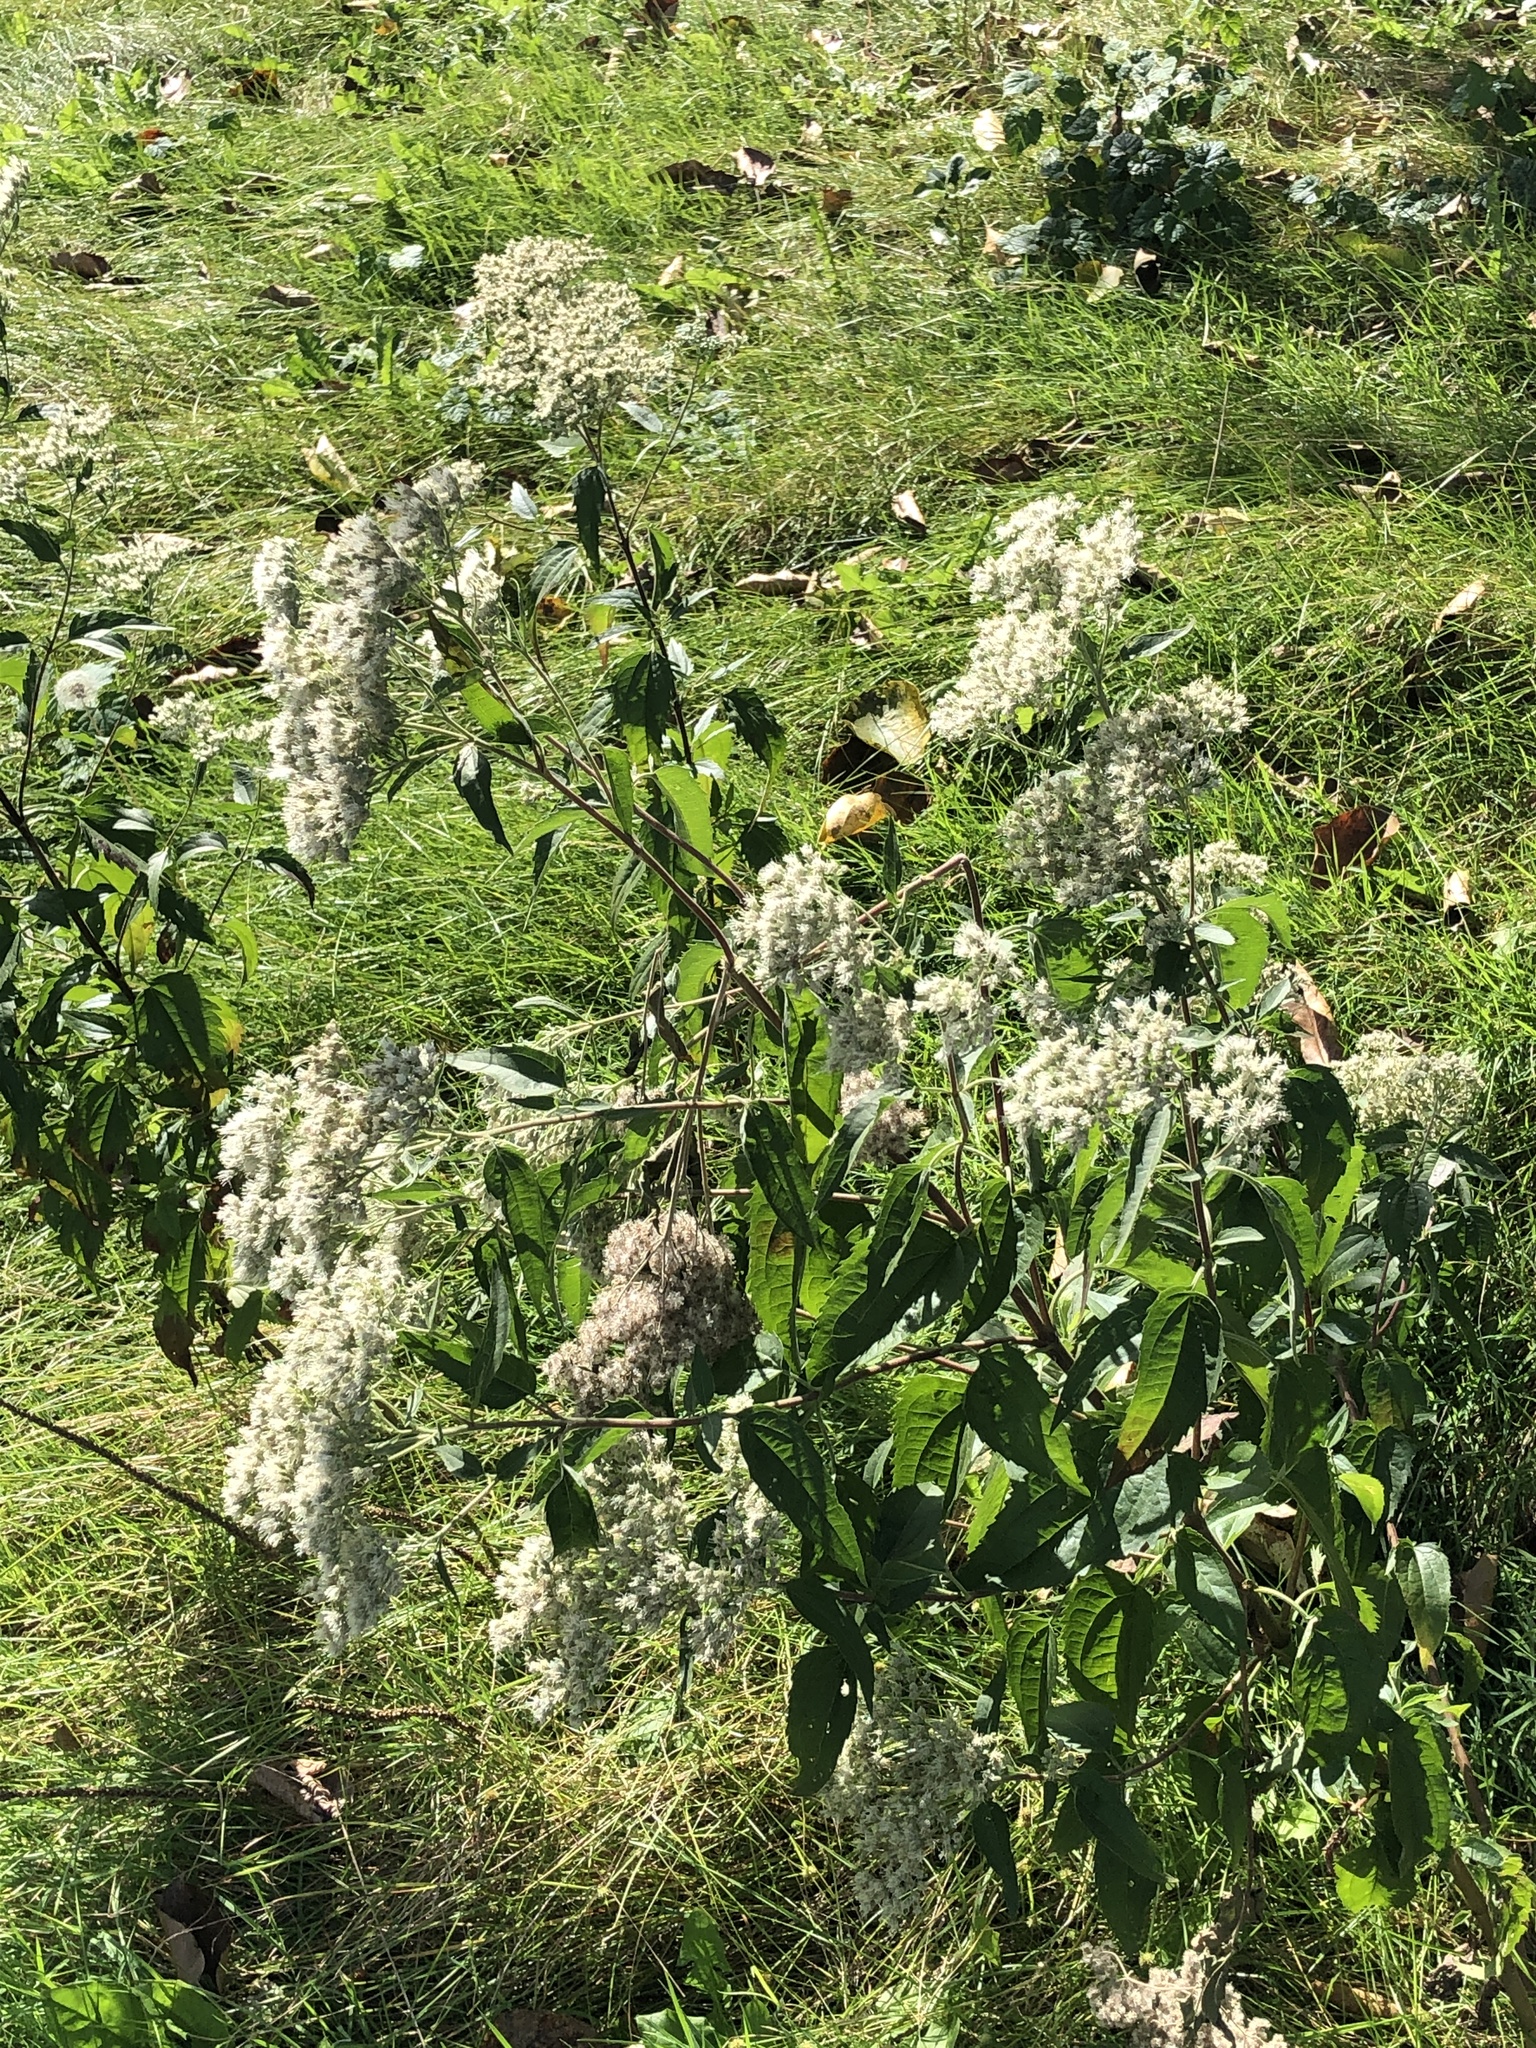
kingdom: Plantae
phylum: Tracheophyta
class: Magnoliopsida
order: Asterales
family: Asteraceae
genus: Eupatorium
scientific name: Eupatorium serotinum
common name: Late boneset
